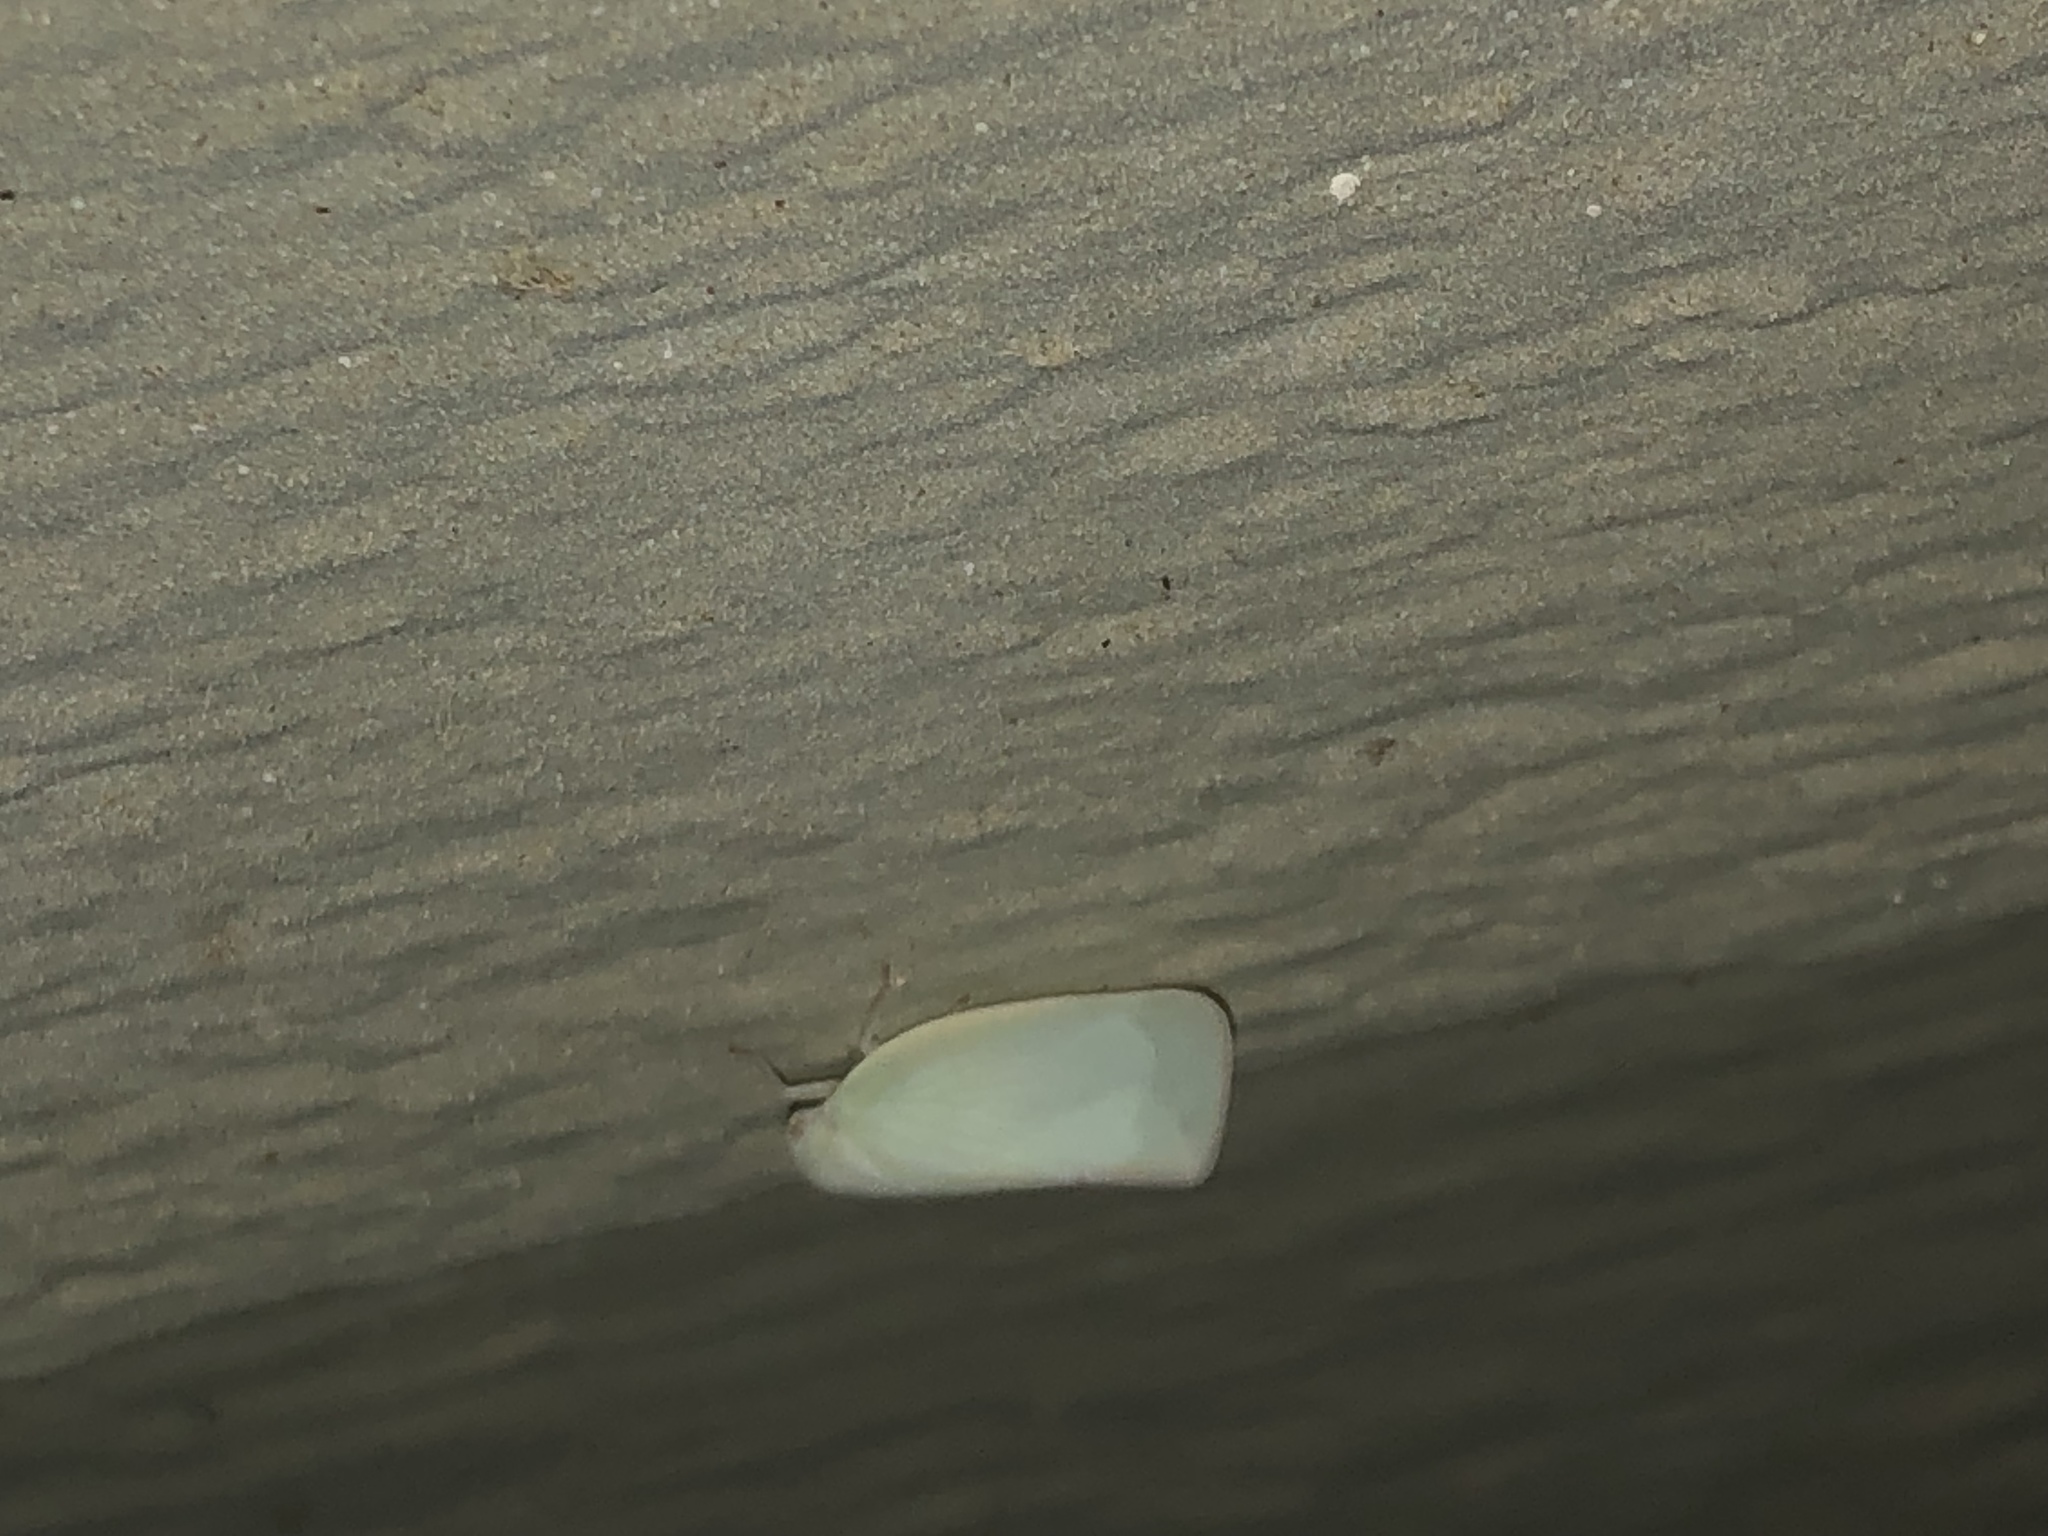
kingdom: Animalia
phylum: Arthropoda
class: Insecta
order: Hemiptera
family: Flatidae
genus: Flatormenis
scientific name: Flatormenis proxima
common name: Northern flatid planthopper
